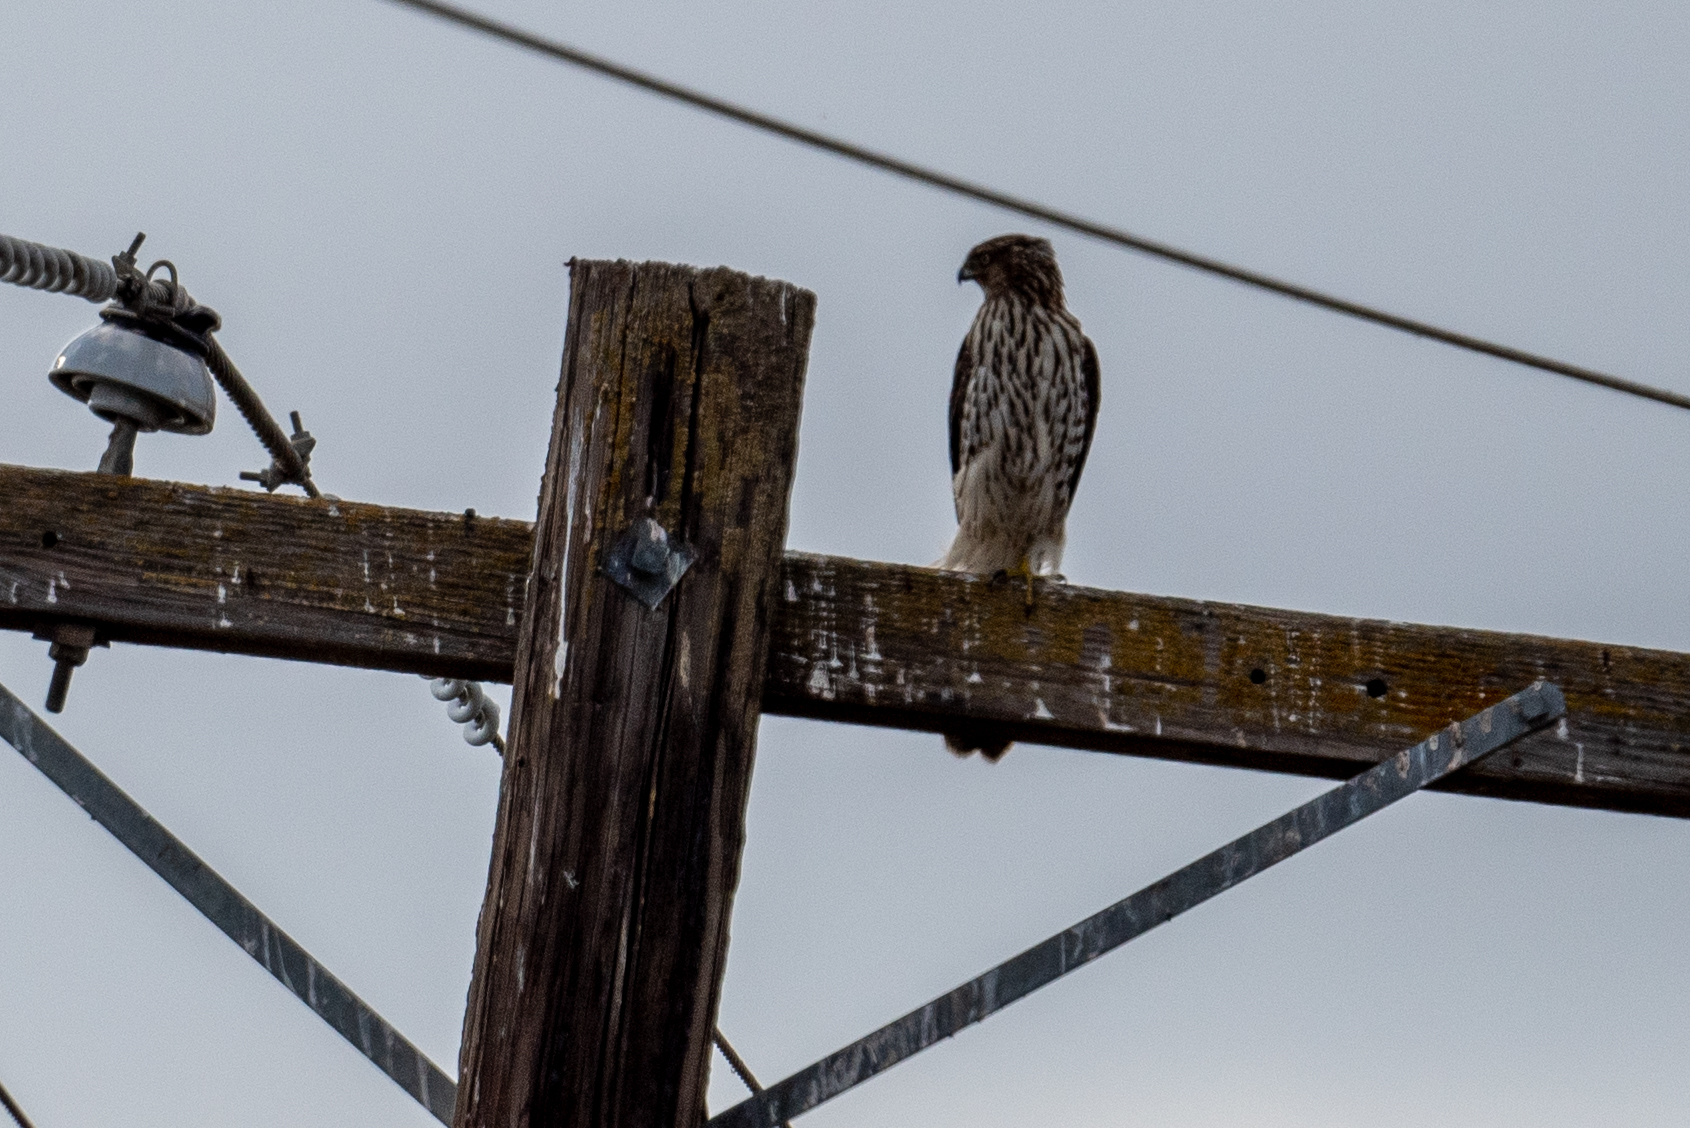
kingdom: Animalia
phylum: Chordata
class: Aves
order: Accipitriformes
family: Accipitridae
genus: Accipiter
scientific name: Accipiter cooperii
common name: Cooper's hawk
